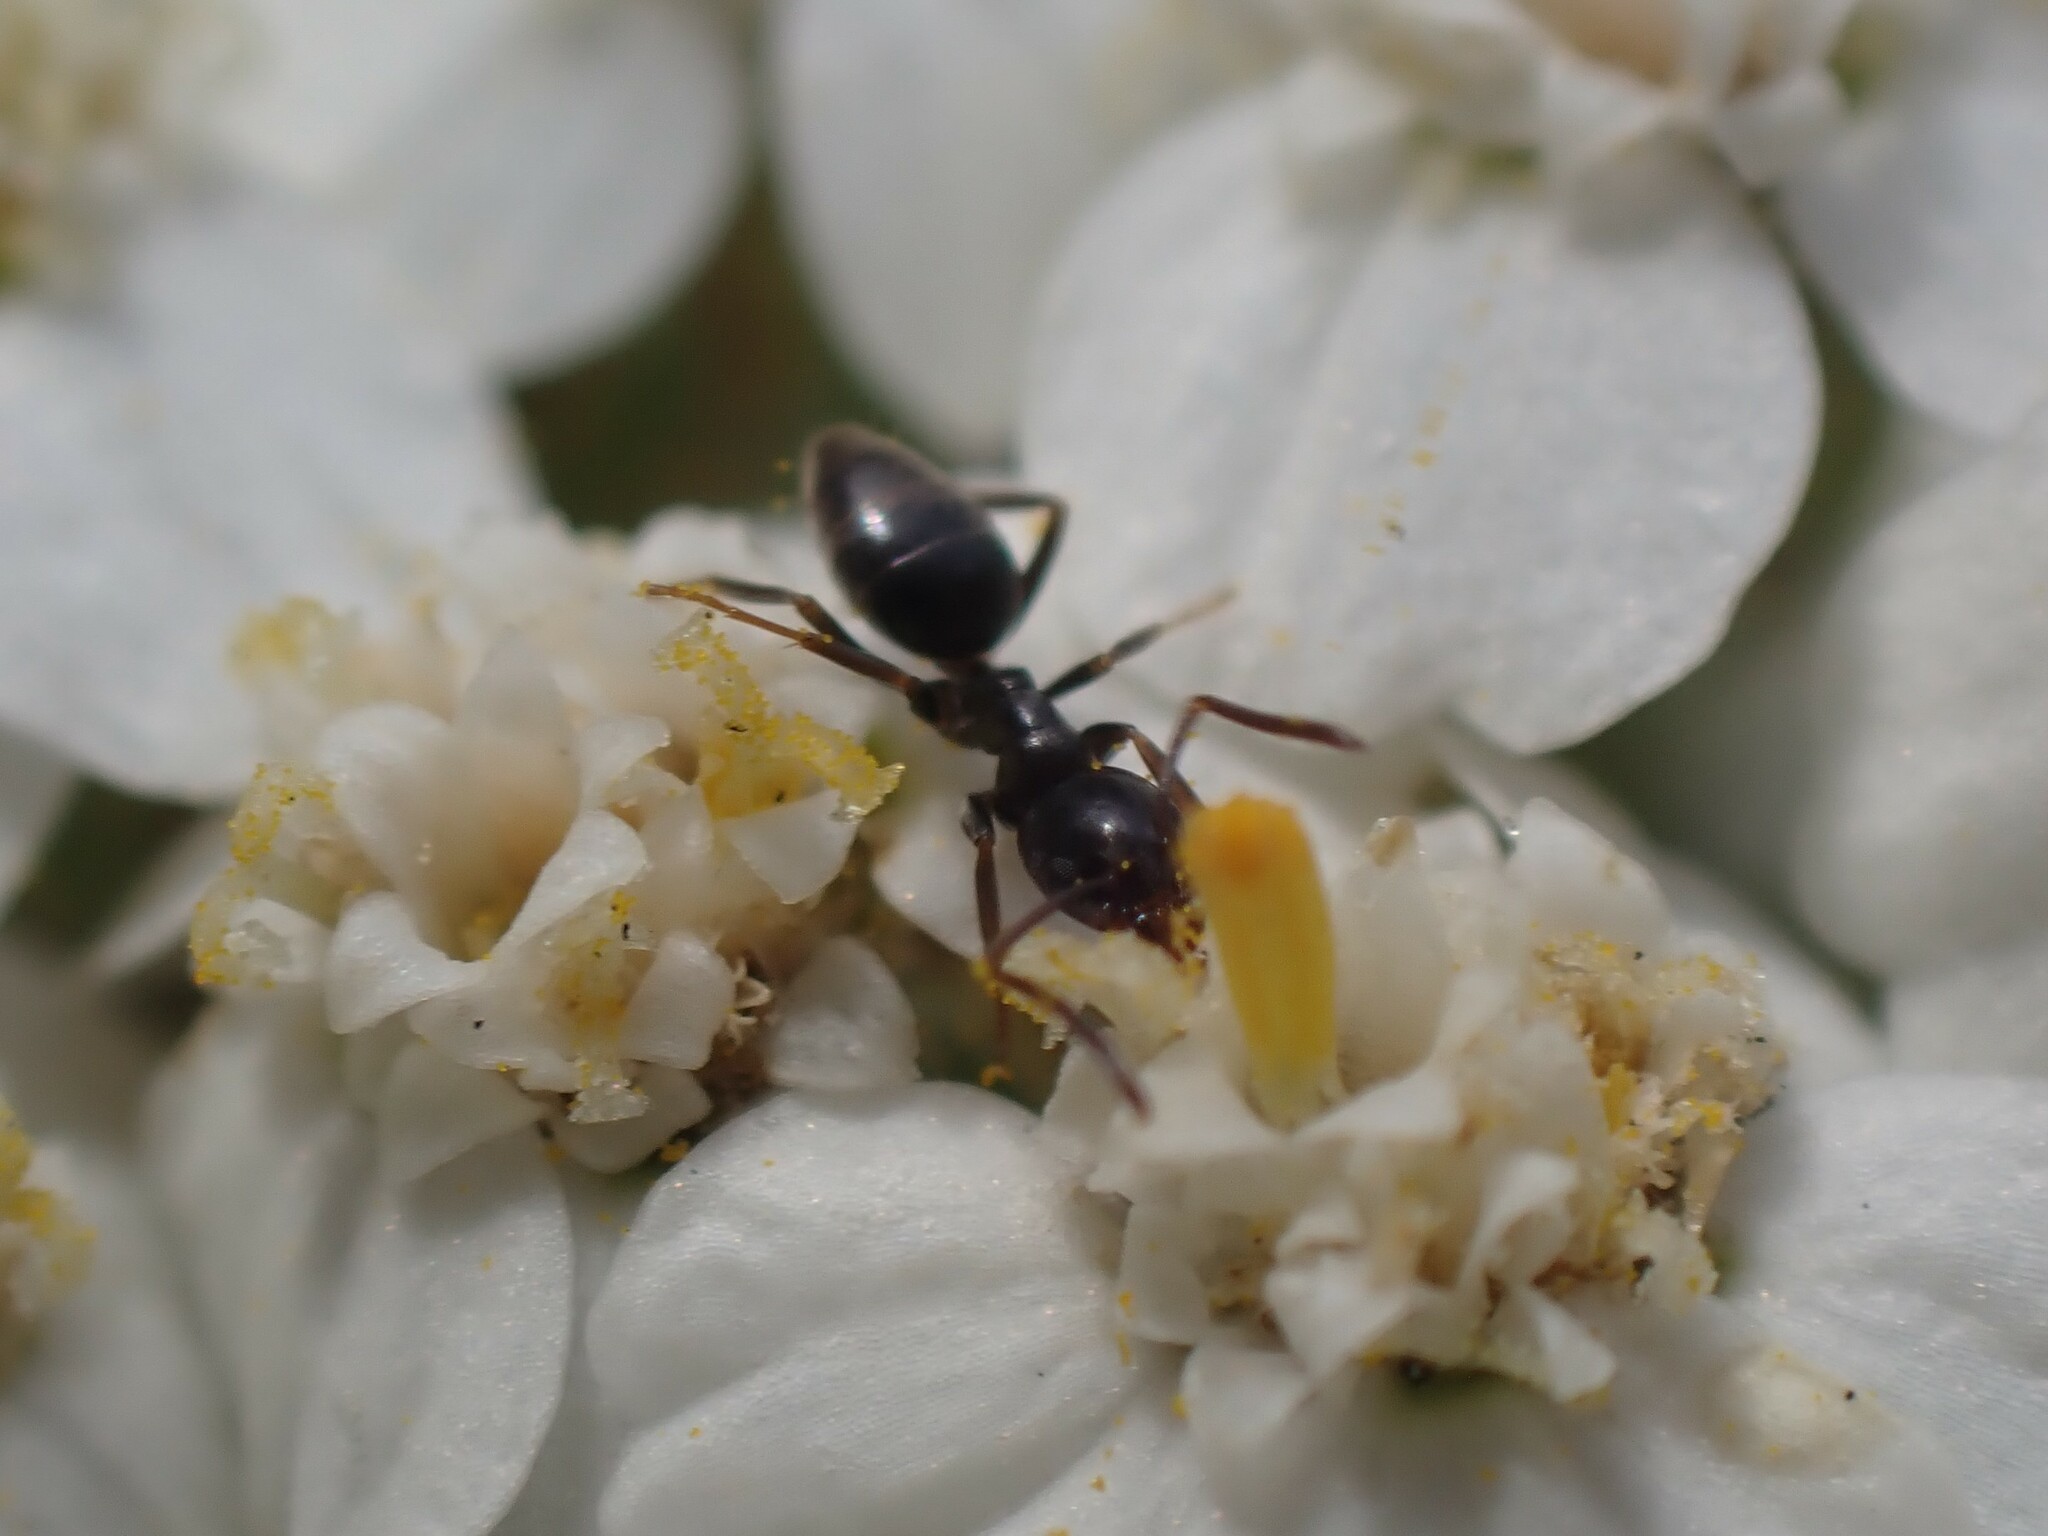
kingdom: Animalia
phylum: Arthropoda
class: Insecta
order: Hymenoptera
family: Formicidae
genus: Tapinoma
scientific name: Tapinoma sessile
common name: Odorous house ant
